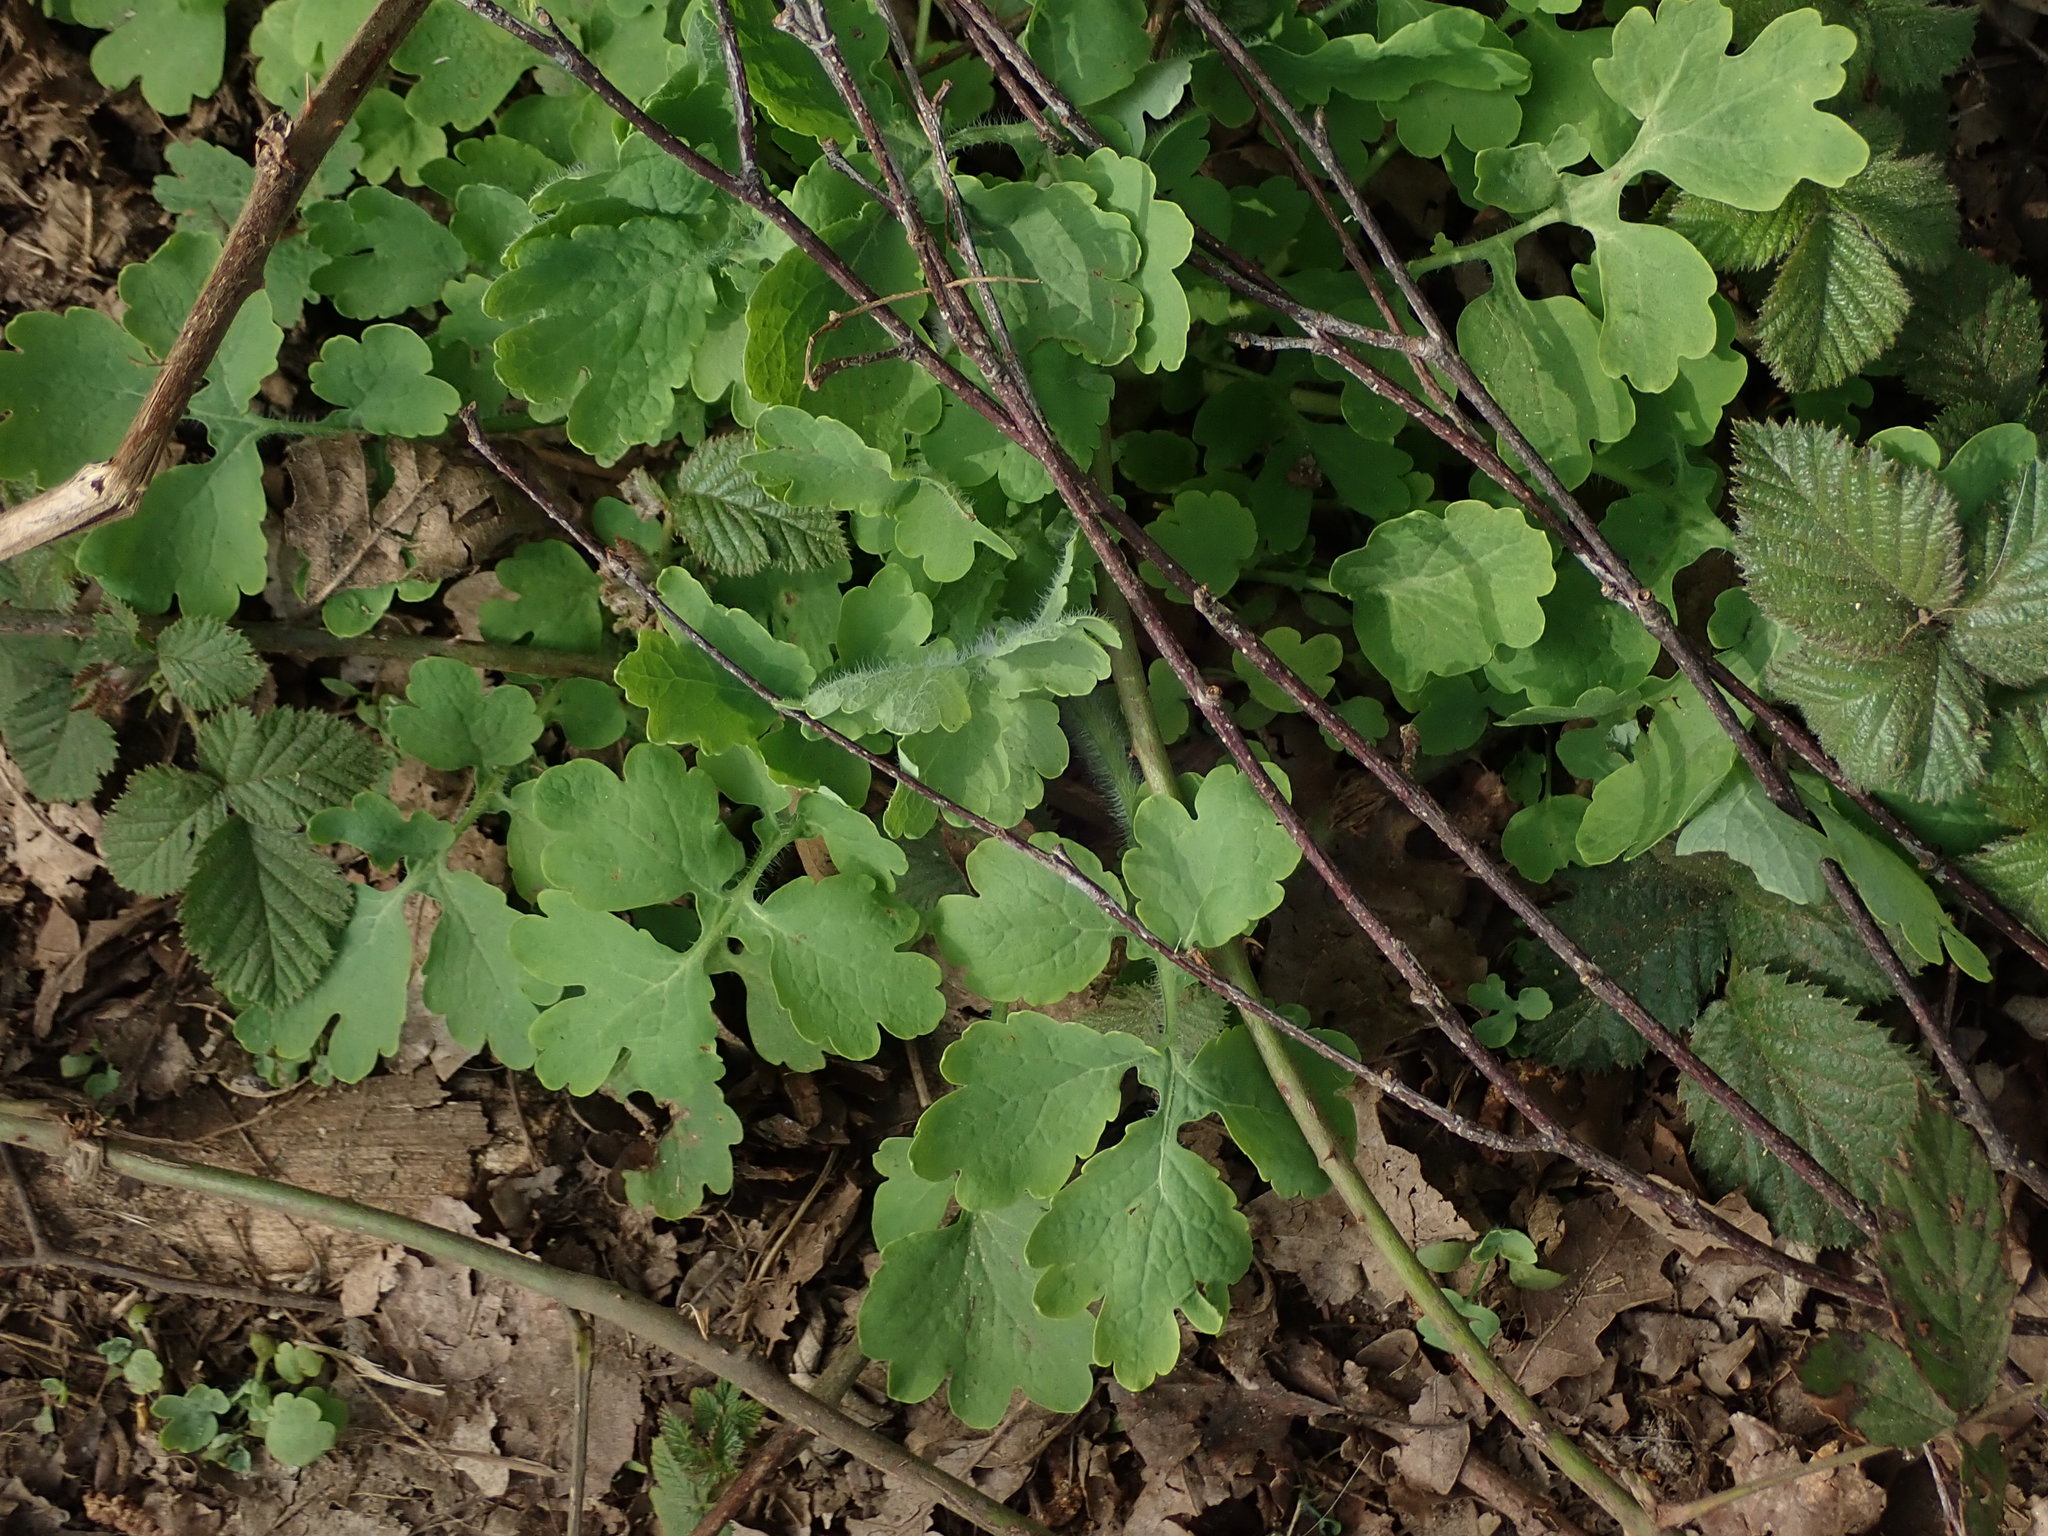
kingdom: Plantae
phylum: Tracheophyta
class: Magnoliopsida
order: Ranunculales
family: Papaveraceae
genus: Chelidonium
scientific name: Chelidonium majus
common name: Greater celandine
